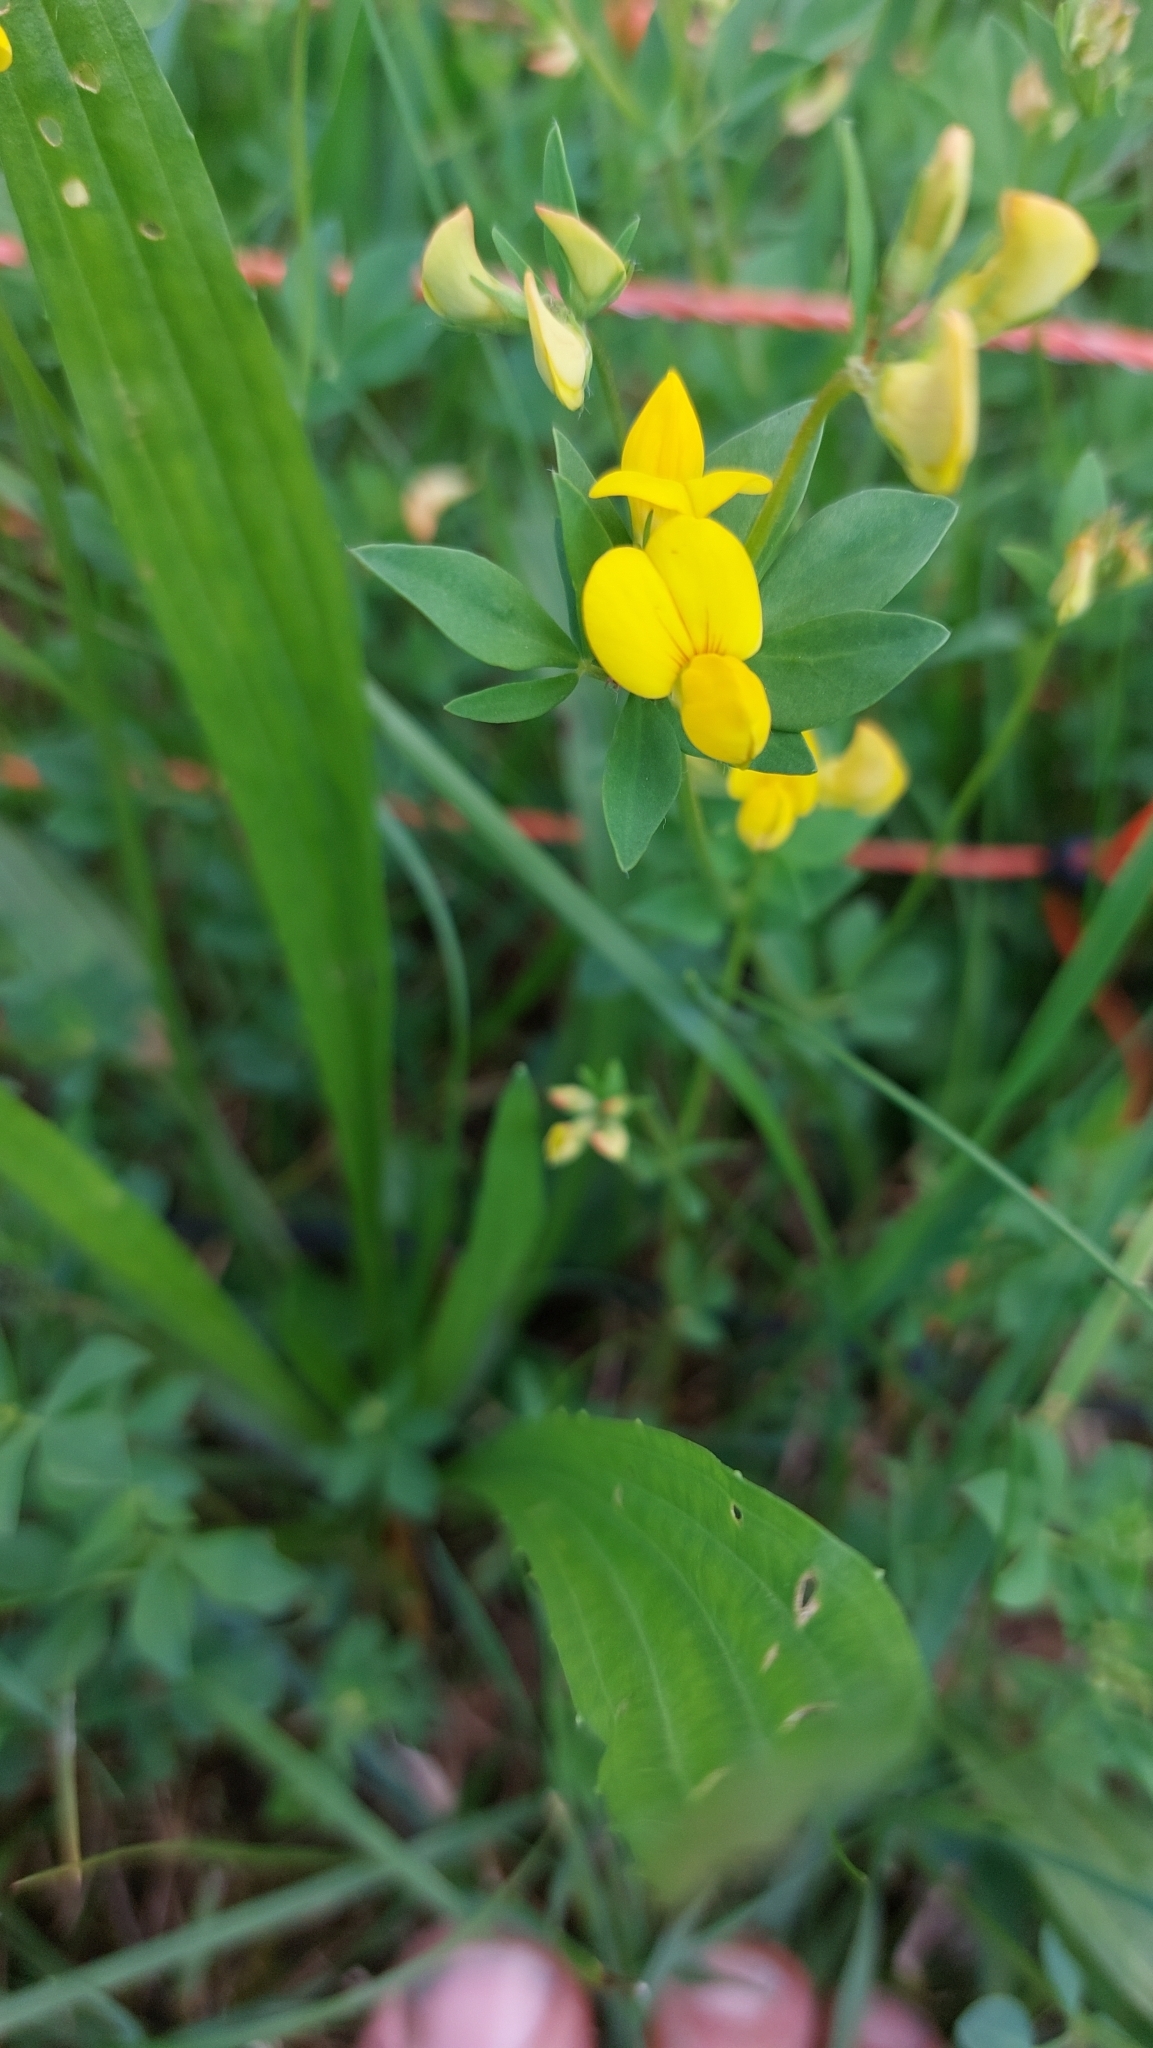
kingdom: Plantae
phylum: Tracheophyta
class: Magnoliopsida
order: Fabales
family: Fabaceae
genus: Lotus
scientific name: Lotus corniculatus
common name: Common bird's-foot-trefoil
